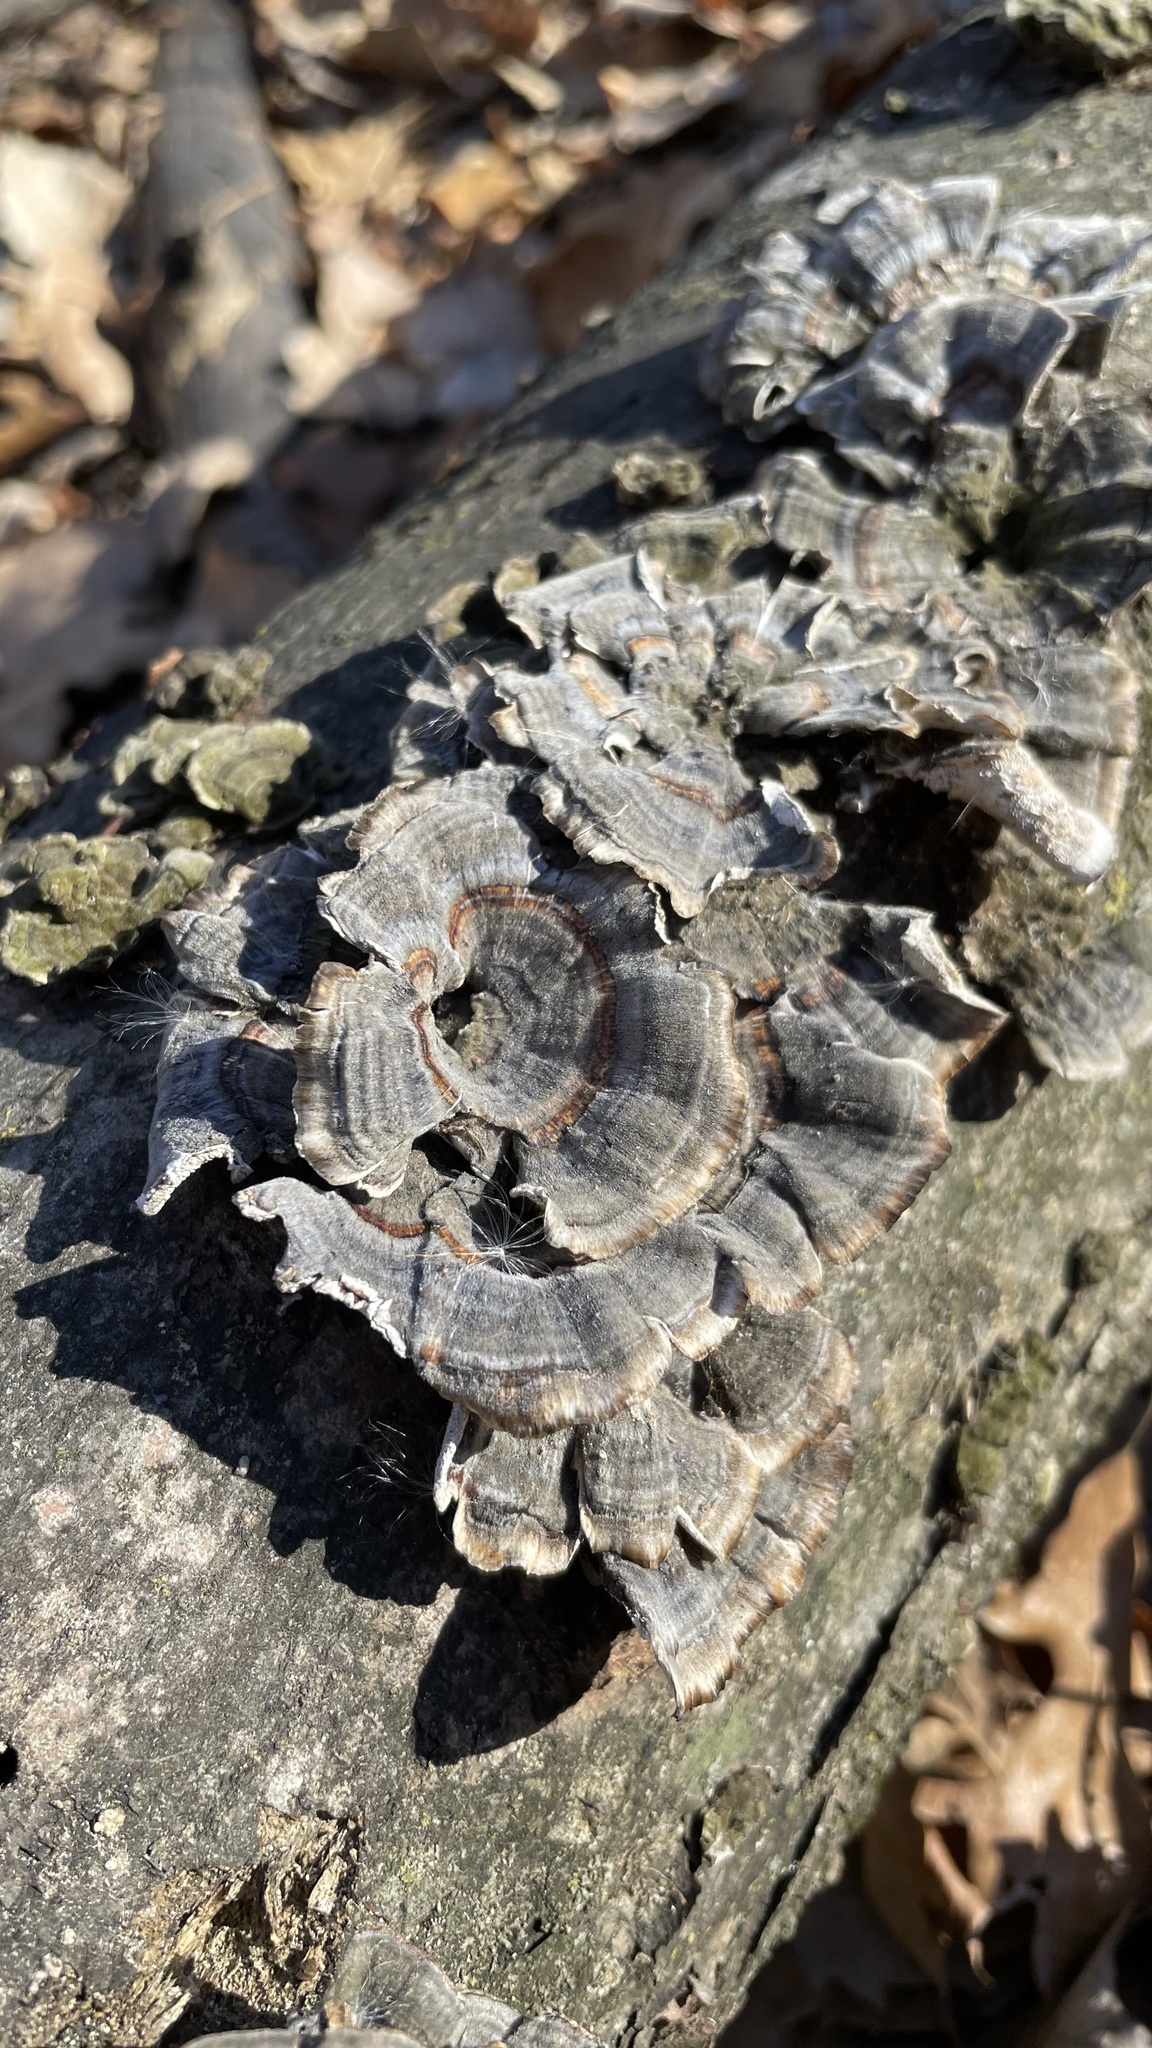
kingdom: Fungi
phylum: Basidiomycota
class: Agaricomycetes
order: Polyporales
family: Polyporaceae
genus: Trametes
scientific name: Trametes versicolor
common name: Turkeytail
